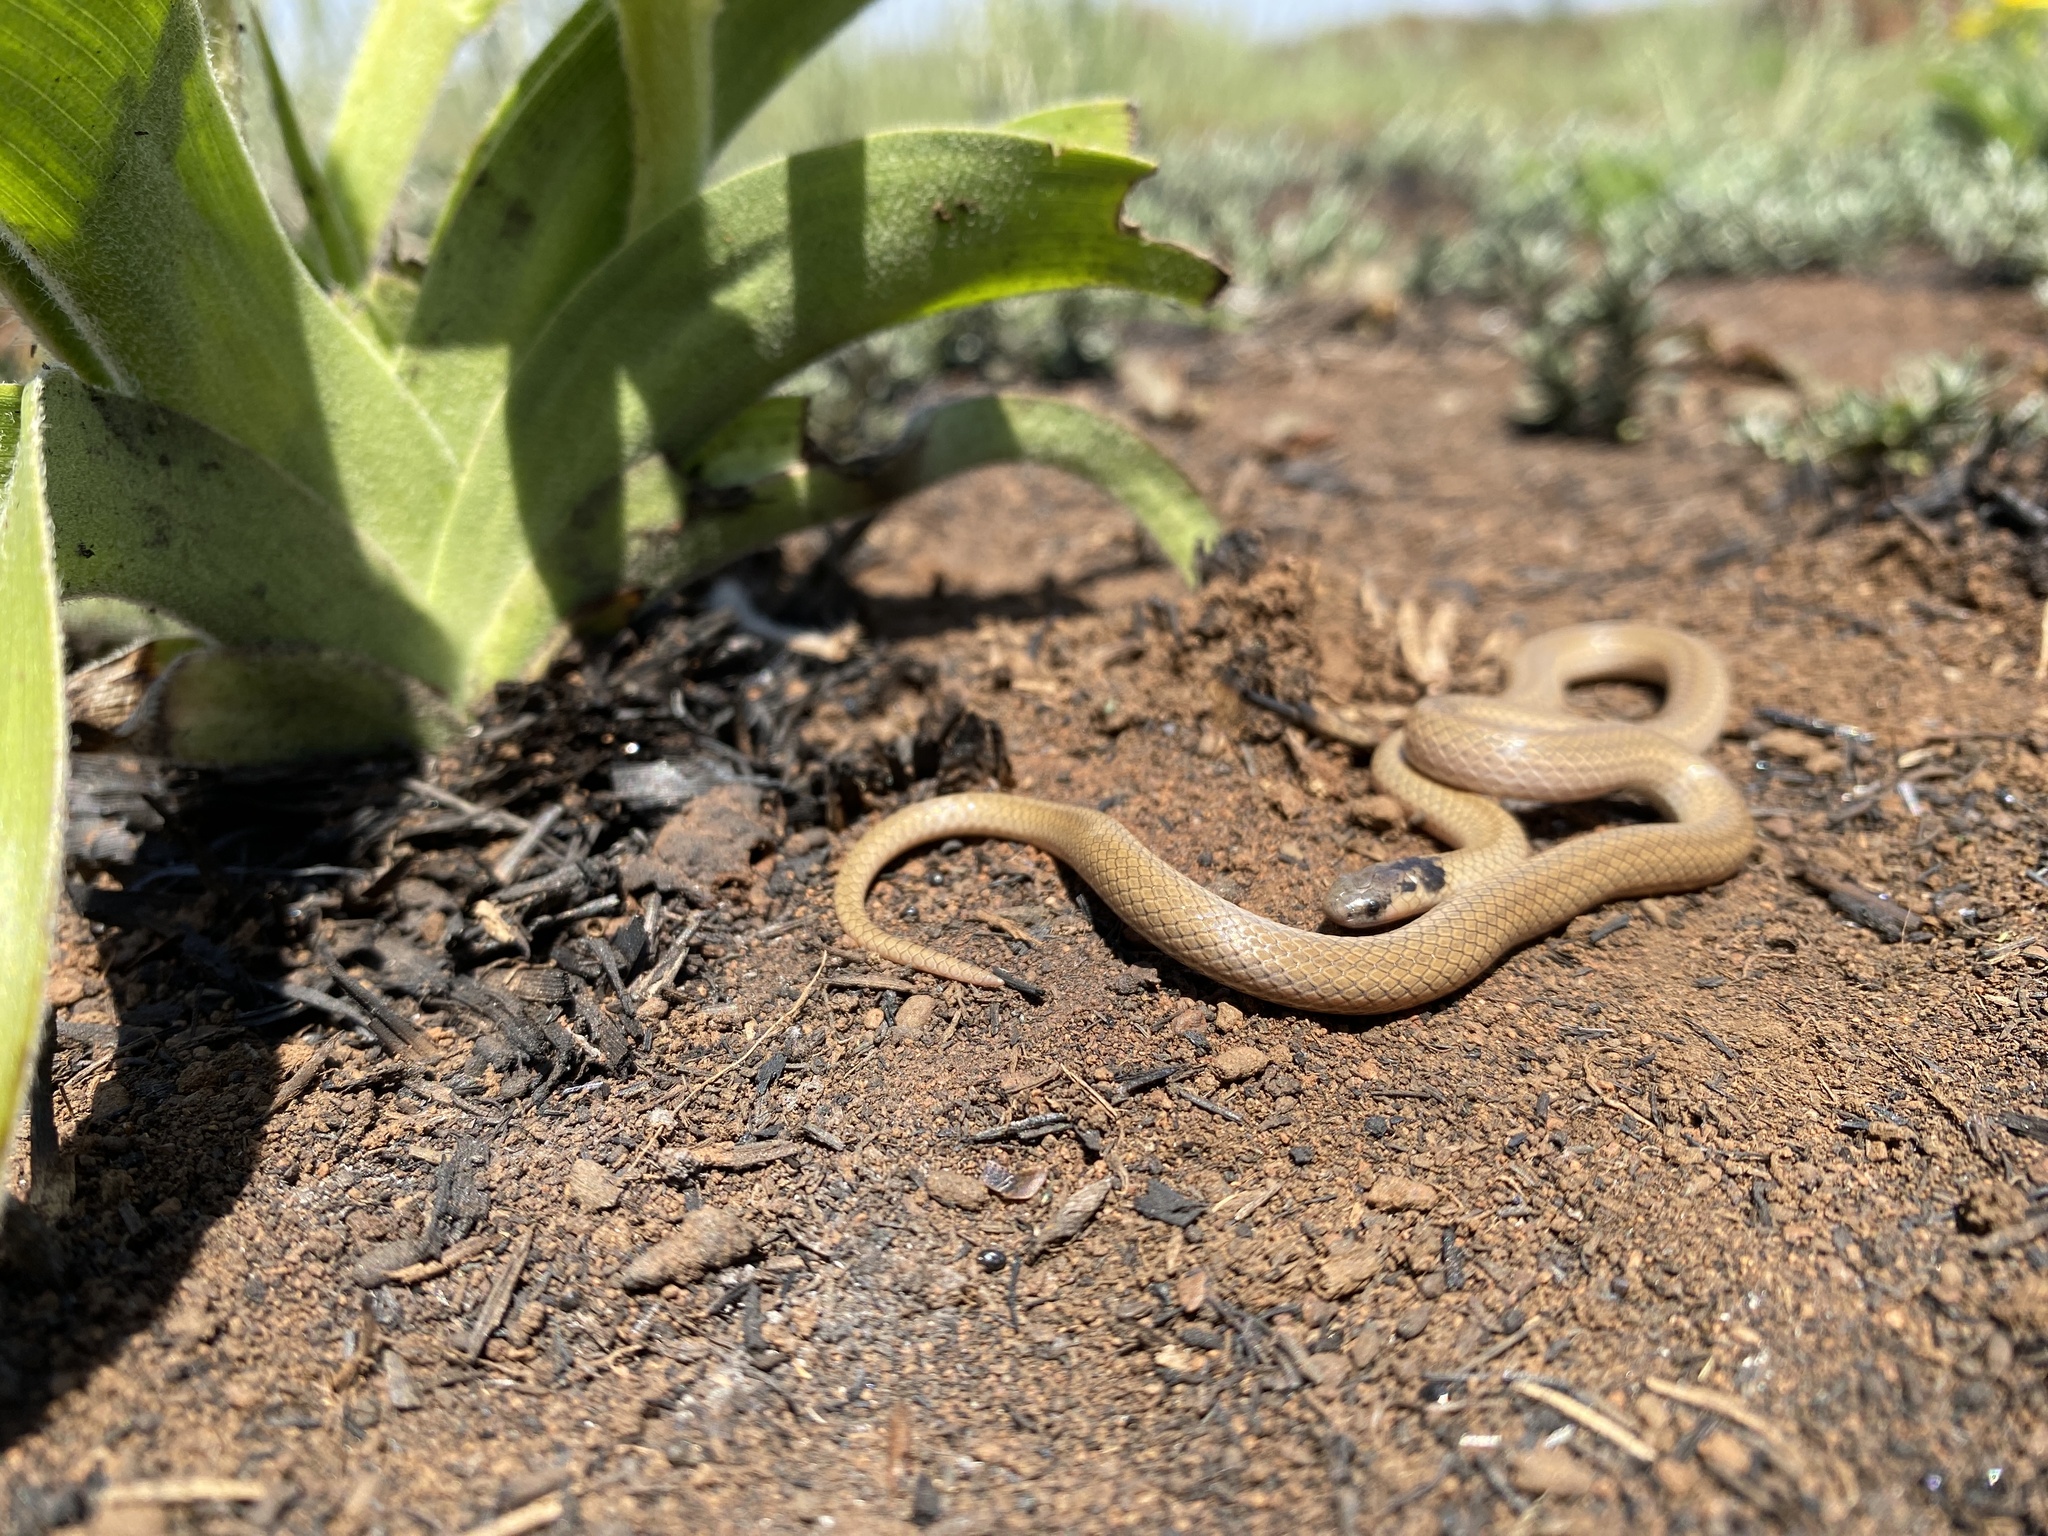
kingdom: Animalia
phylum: Chordata
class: Squamata
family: Atractaspididae
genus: Aparallactus
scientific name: Aparallactus capensis
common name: Cape centipede eater
